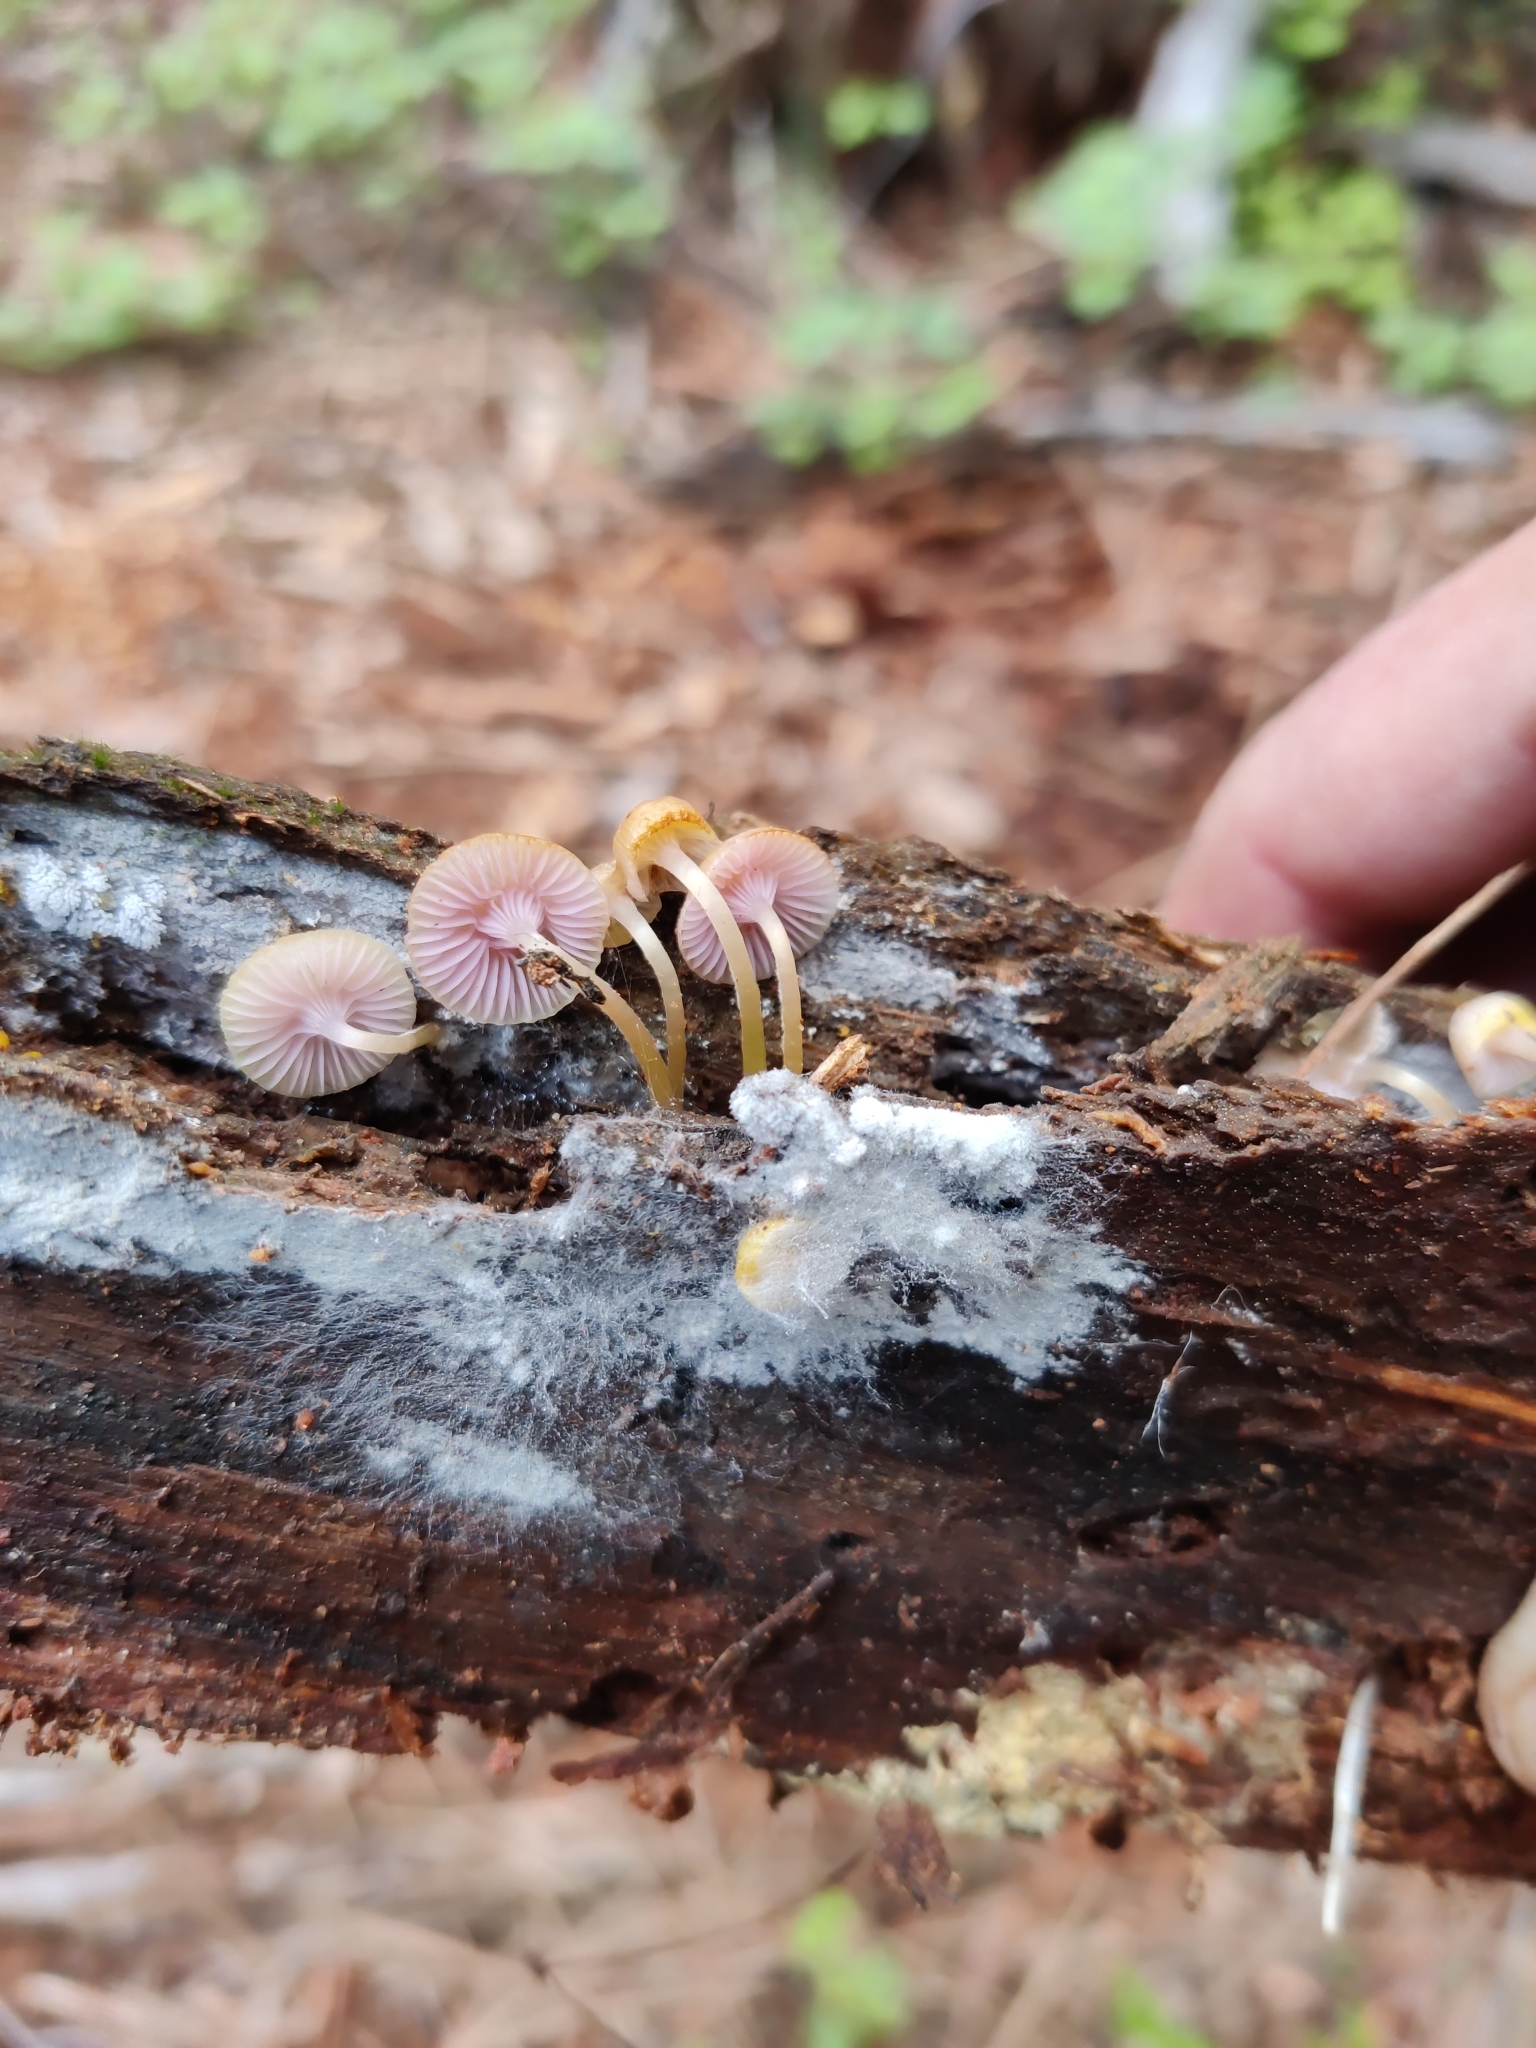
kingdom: Fungi
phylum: Basidiomycota
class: Agaricomycetes
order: Agaricales
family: Hygrophoraceae
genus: Chromosera
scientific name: Chromosera cyanophylla
